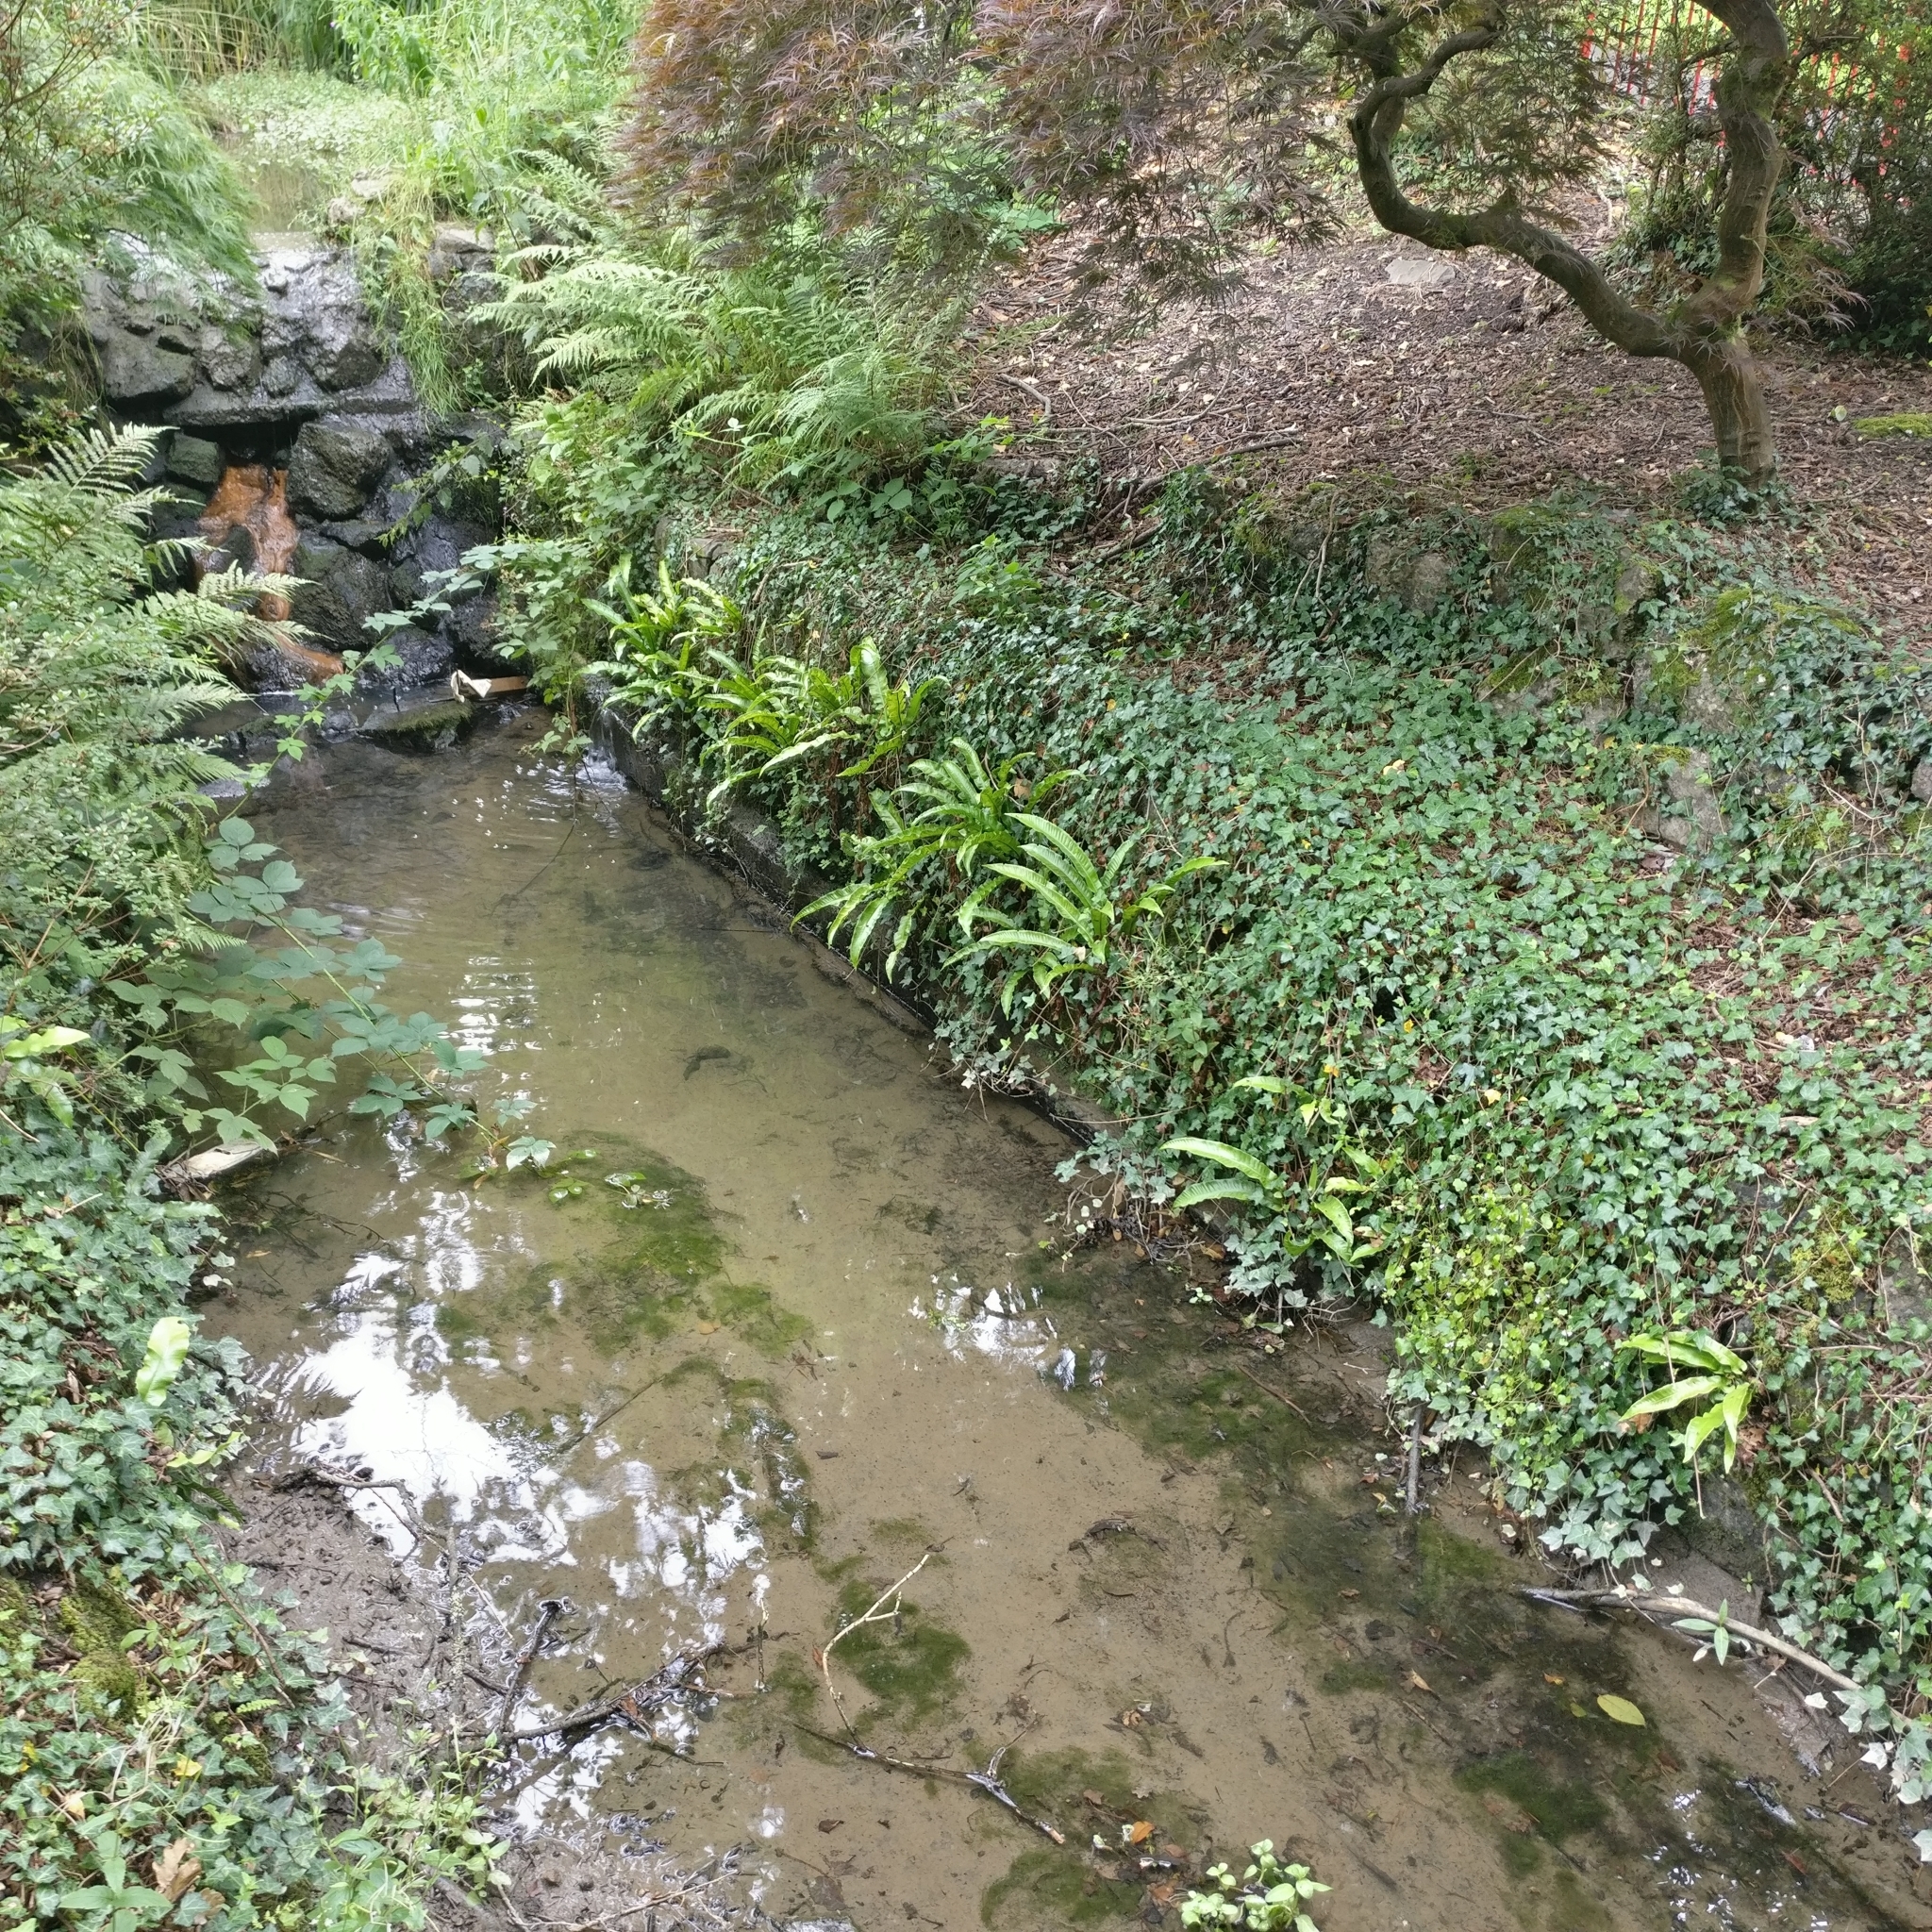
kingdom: Plantae
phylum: Tracheophyta
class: Polypodiopsida
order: Polypodiales
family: Aspleniaceae
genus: Asplenium
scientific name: Asplenium scolopendrium
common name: Hart's-tongue fern
